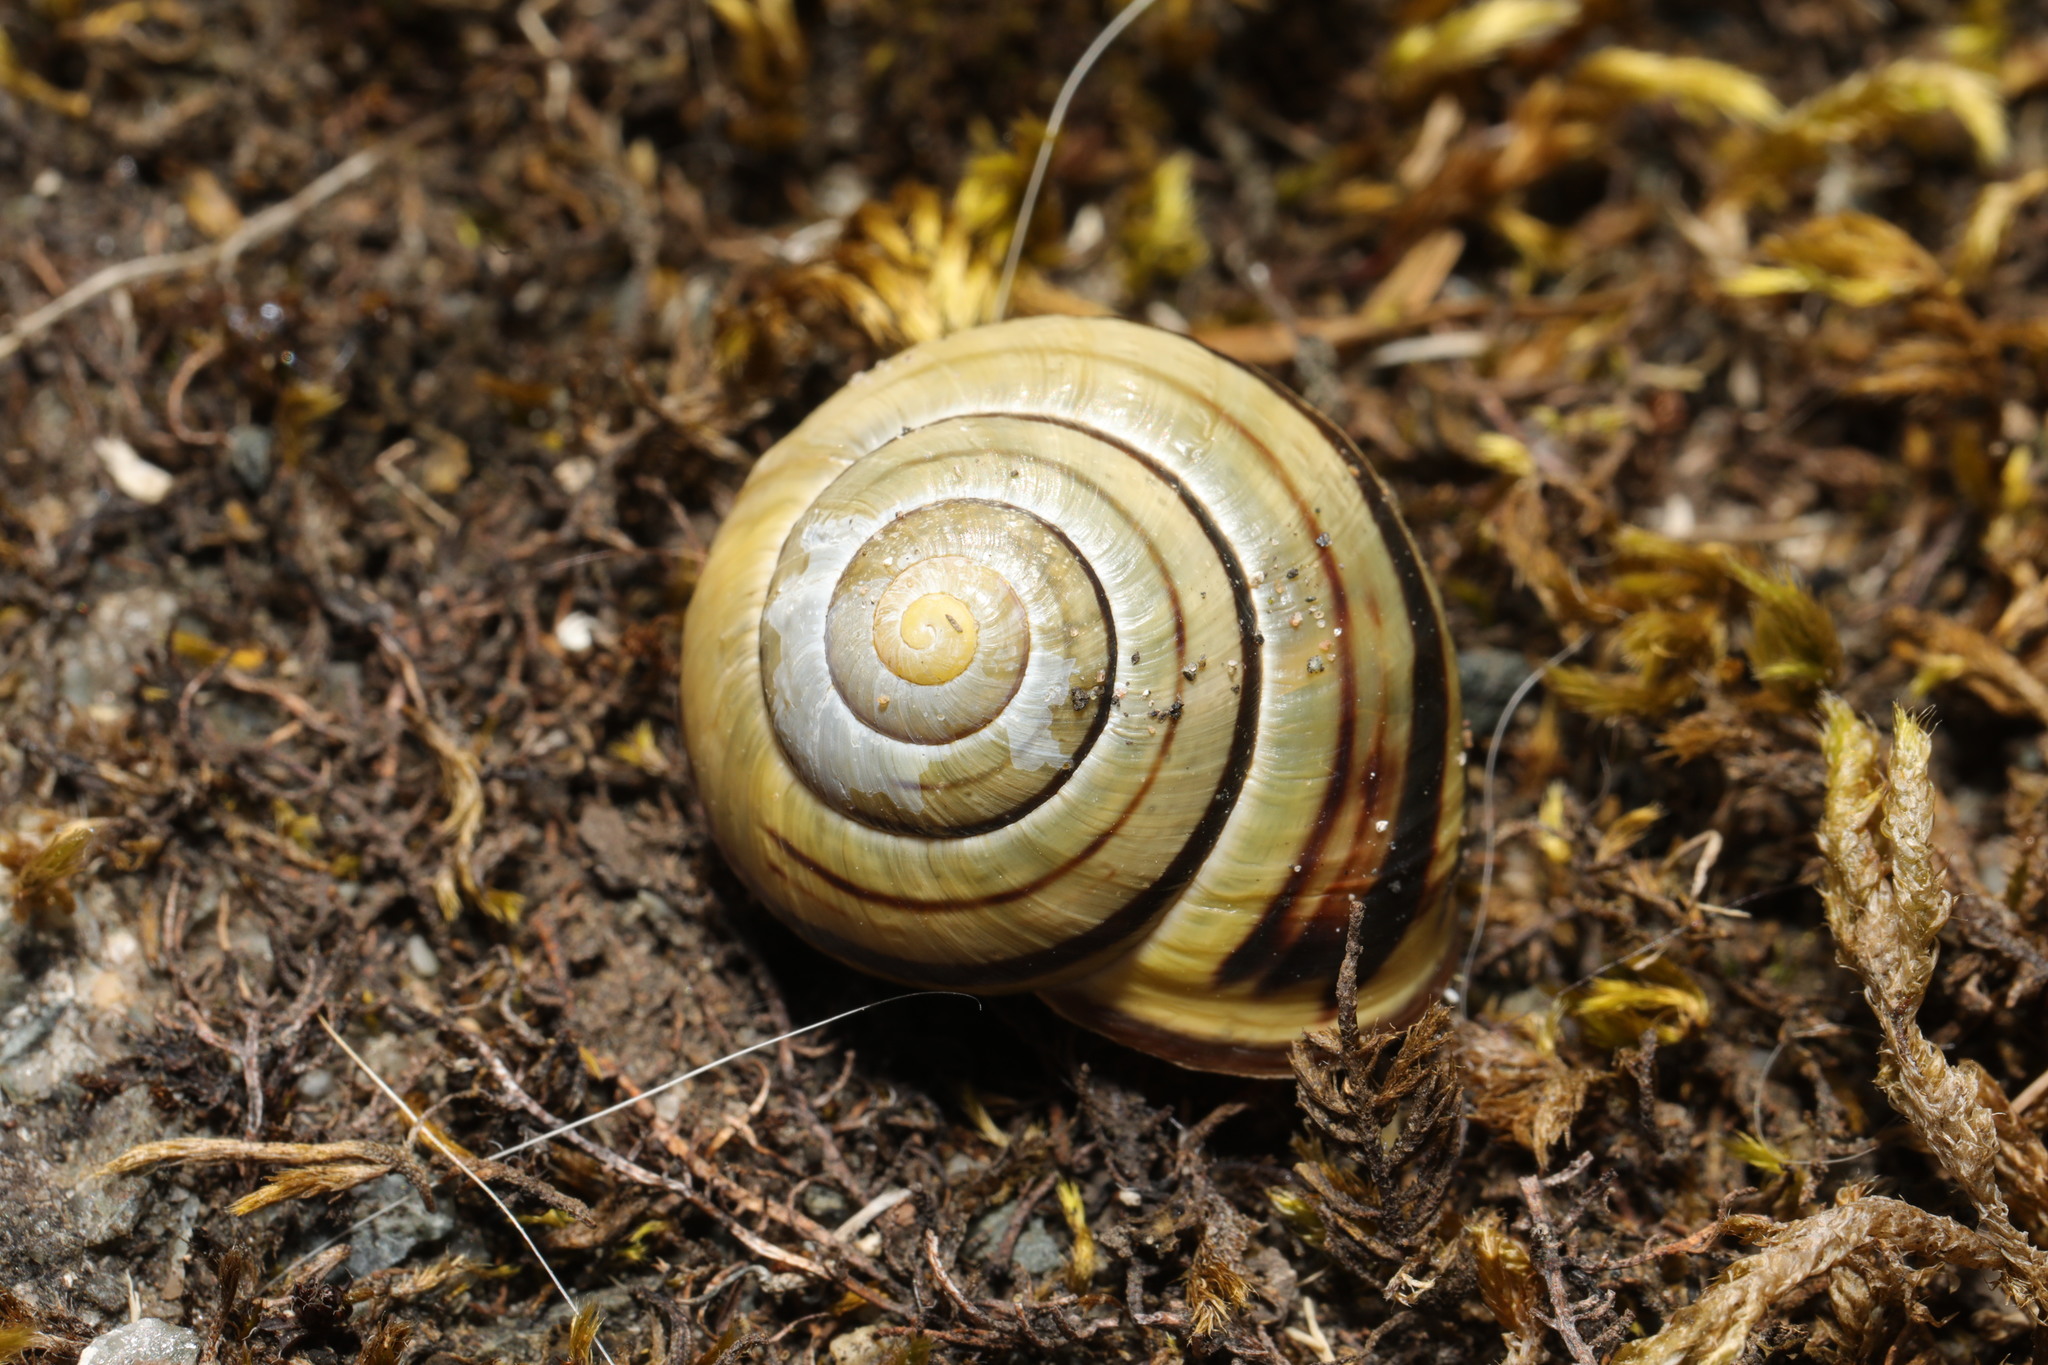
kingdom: Animalia
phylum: Mollusca
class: Gastropoda
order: Stylommatophora
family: Helicidae
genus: Cepaea
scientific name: Cepaea nemoralis
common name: Grovesnail
